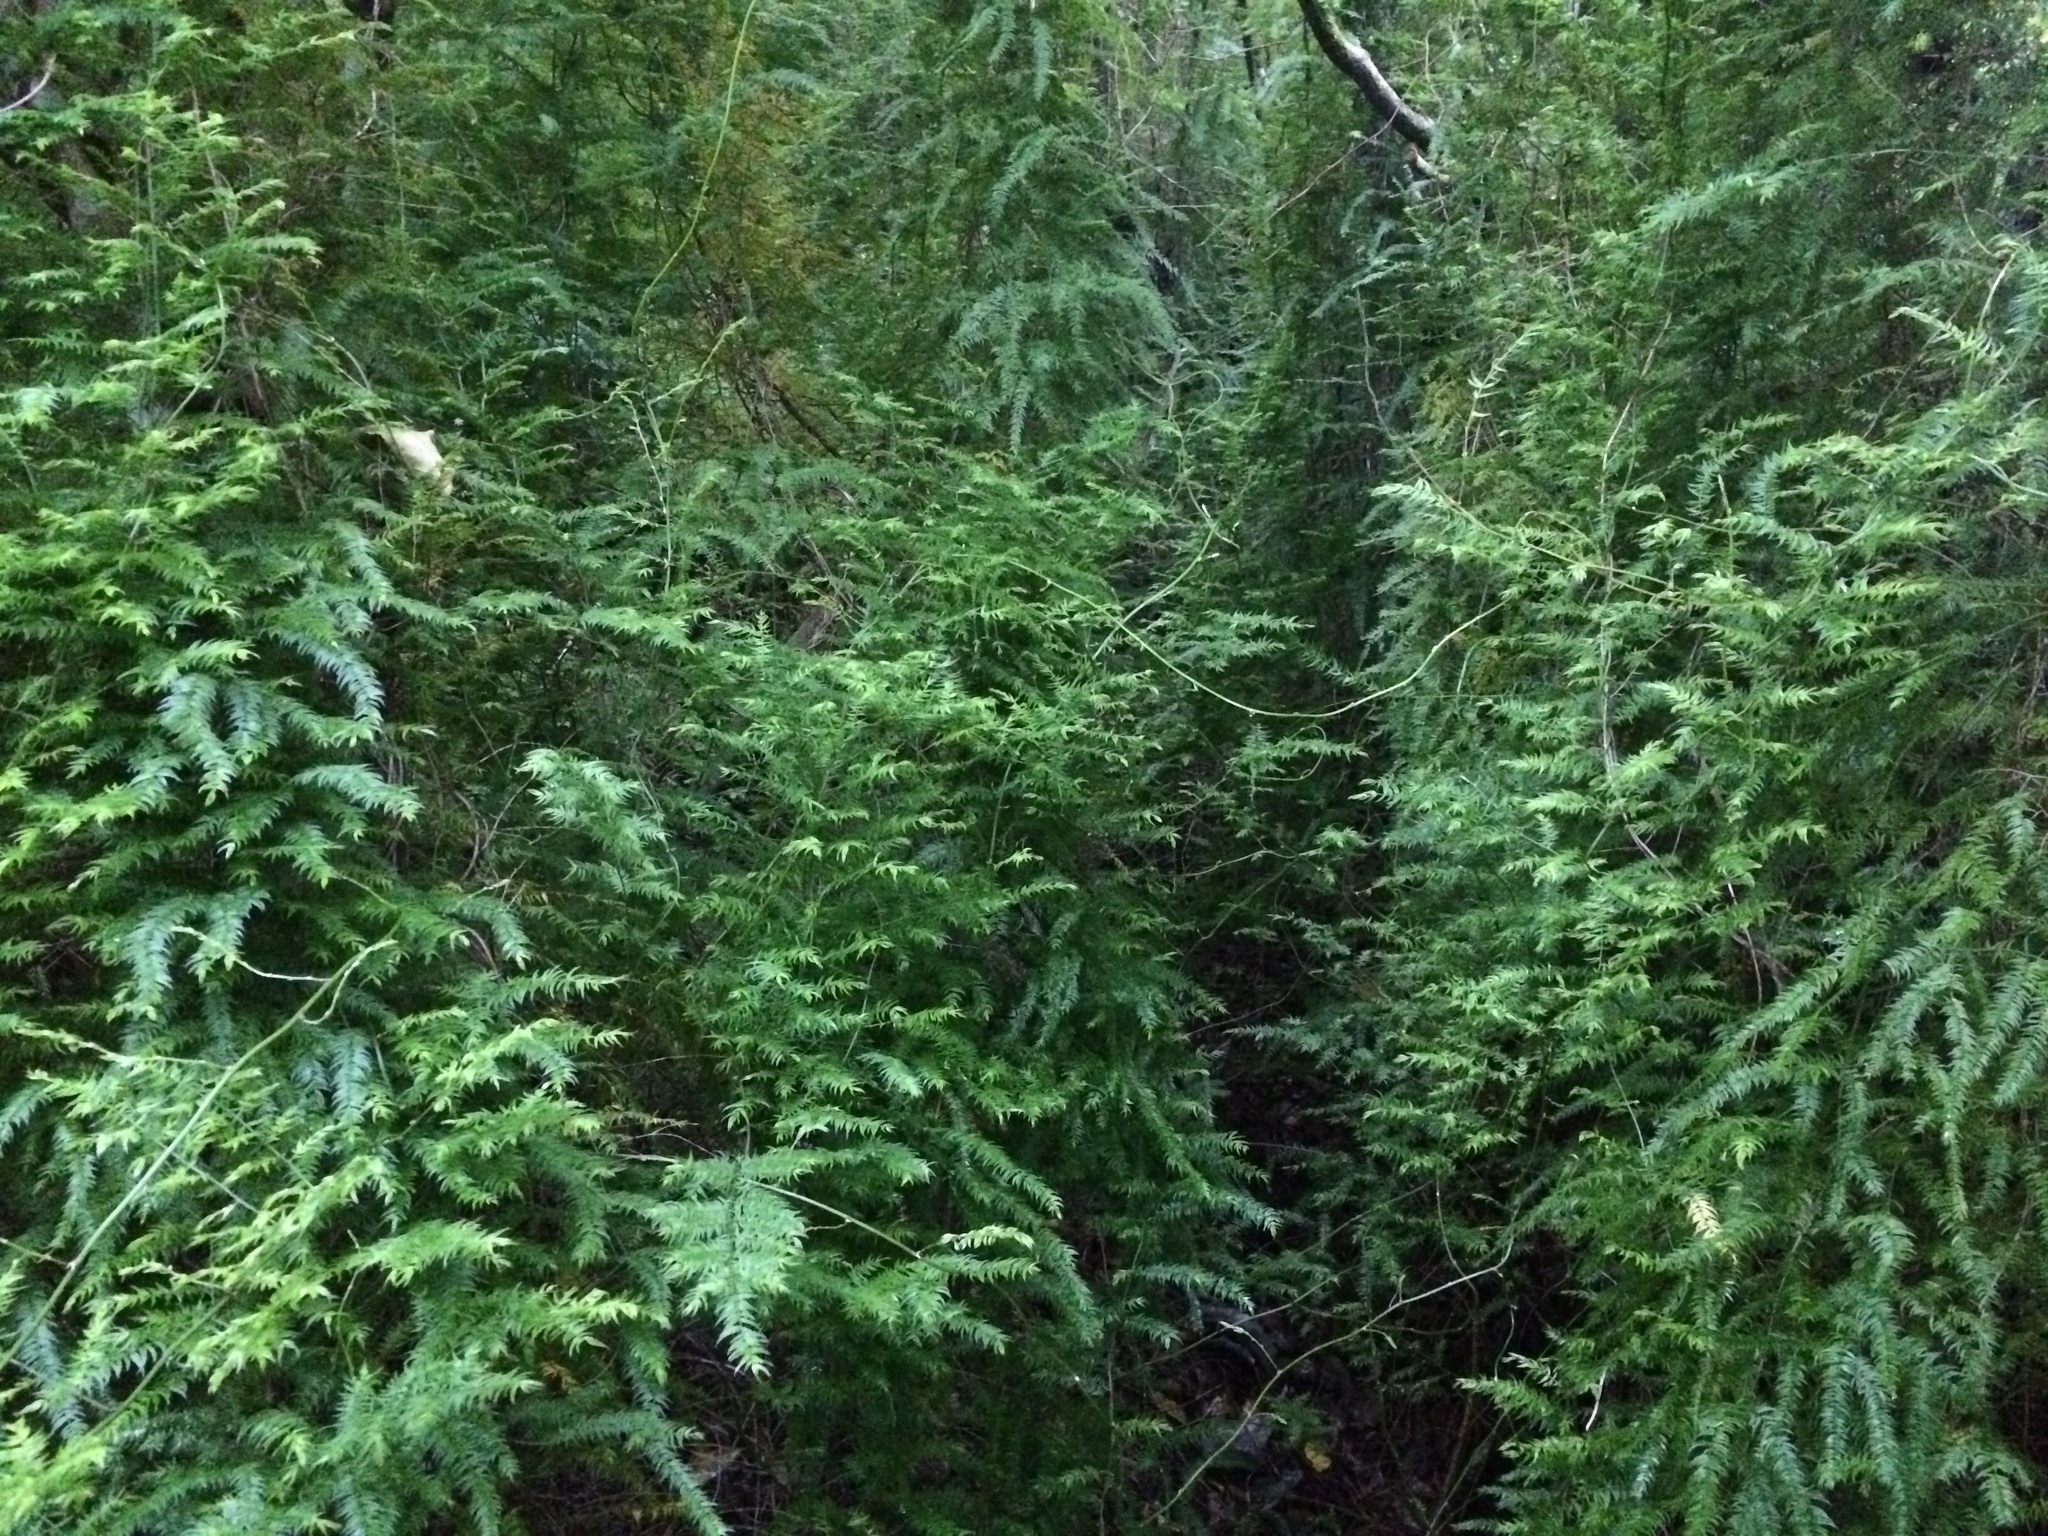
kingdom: Plantae
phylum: Tracheophyta
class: Liliopsida
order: Asparagales
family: Asparagaceae
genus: Asparagus
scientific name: Asparagus scandens
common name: Asparagus-fern
